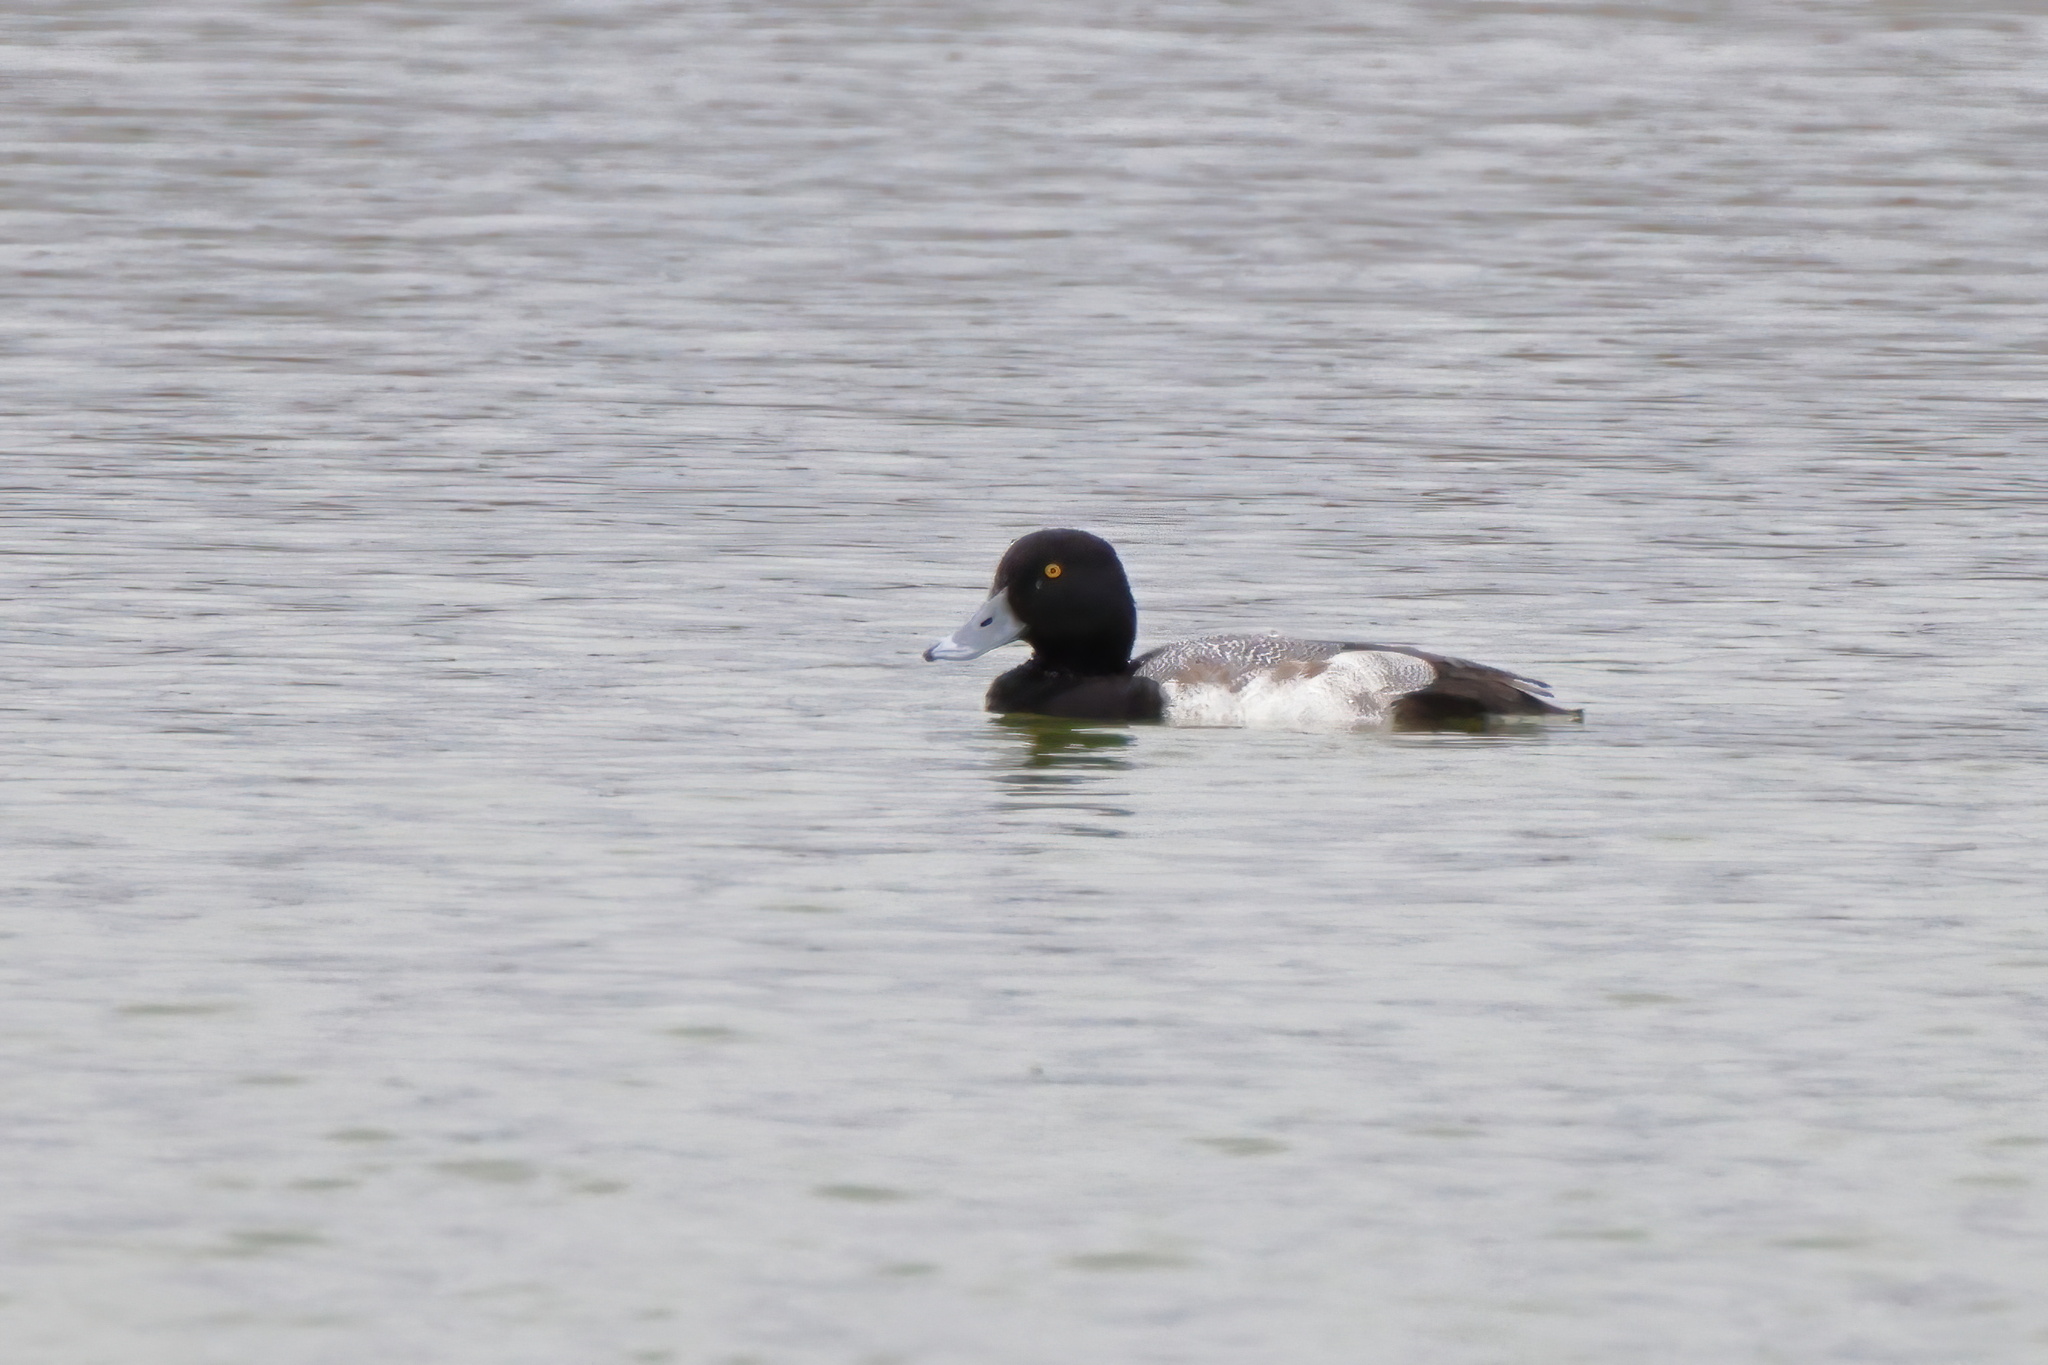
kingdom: Animalia
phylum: Chordata
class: Aves
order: Anseriformes
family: Anatidae
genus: Aythya
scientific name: Aythya affinis
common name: Lesser scaup
